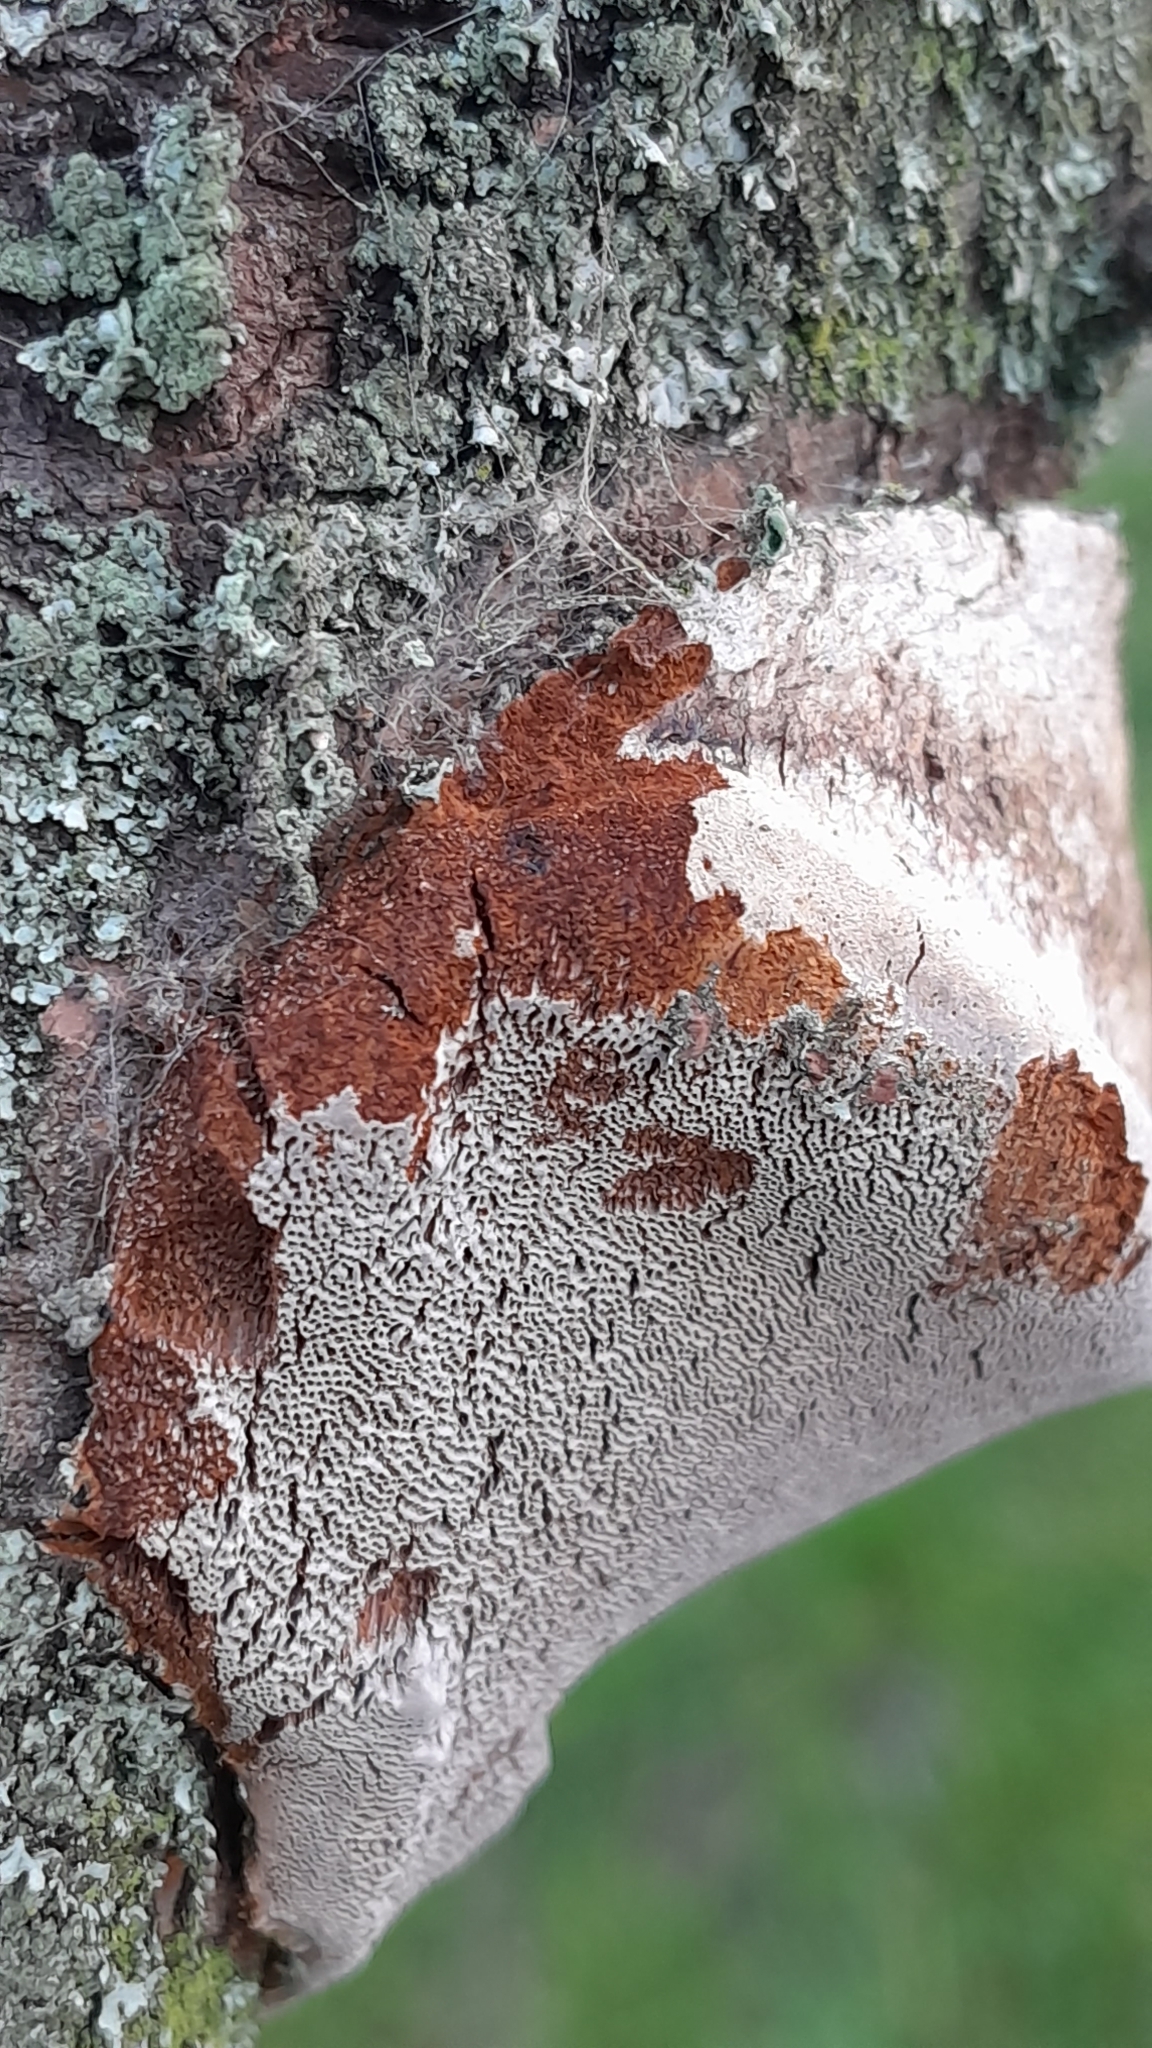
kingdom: Fungi
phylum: Basidiomycota
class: Agaricomycetes
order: Hymenochaetales
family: Hymenochaetaceae
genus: Phellinus
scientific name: Phellinus pomaceus
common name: Cushion bracket
